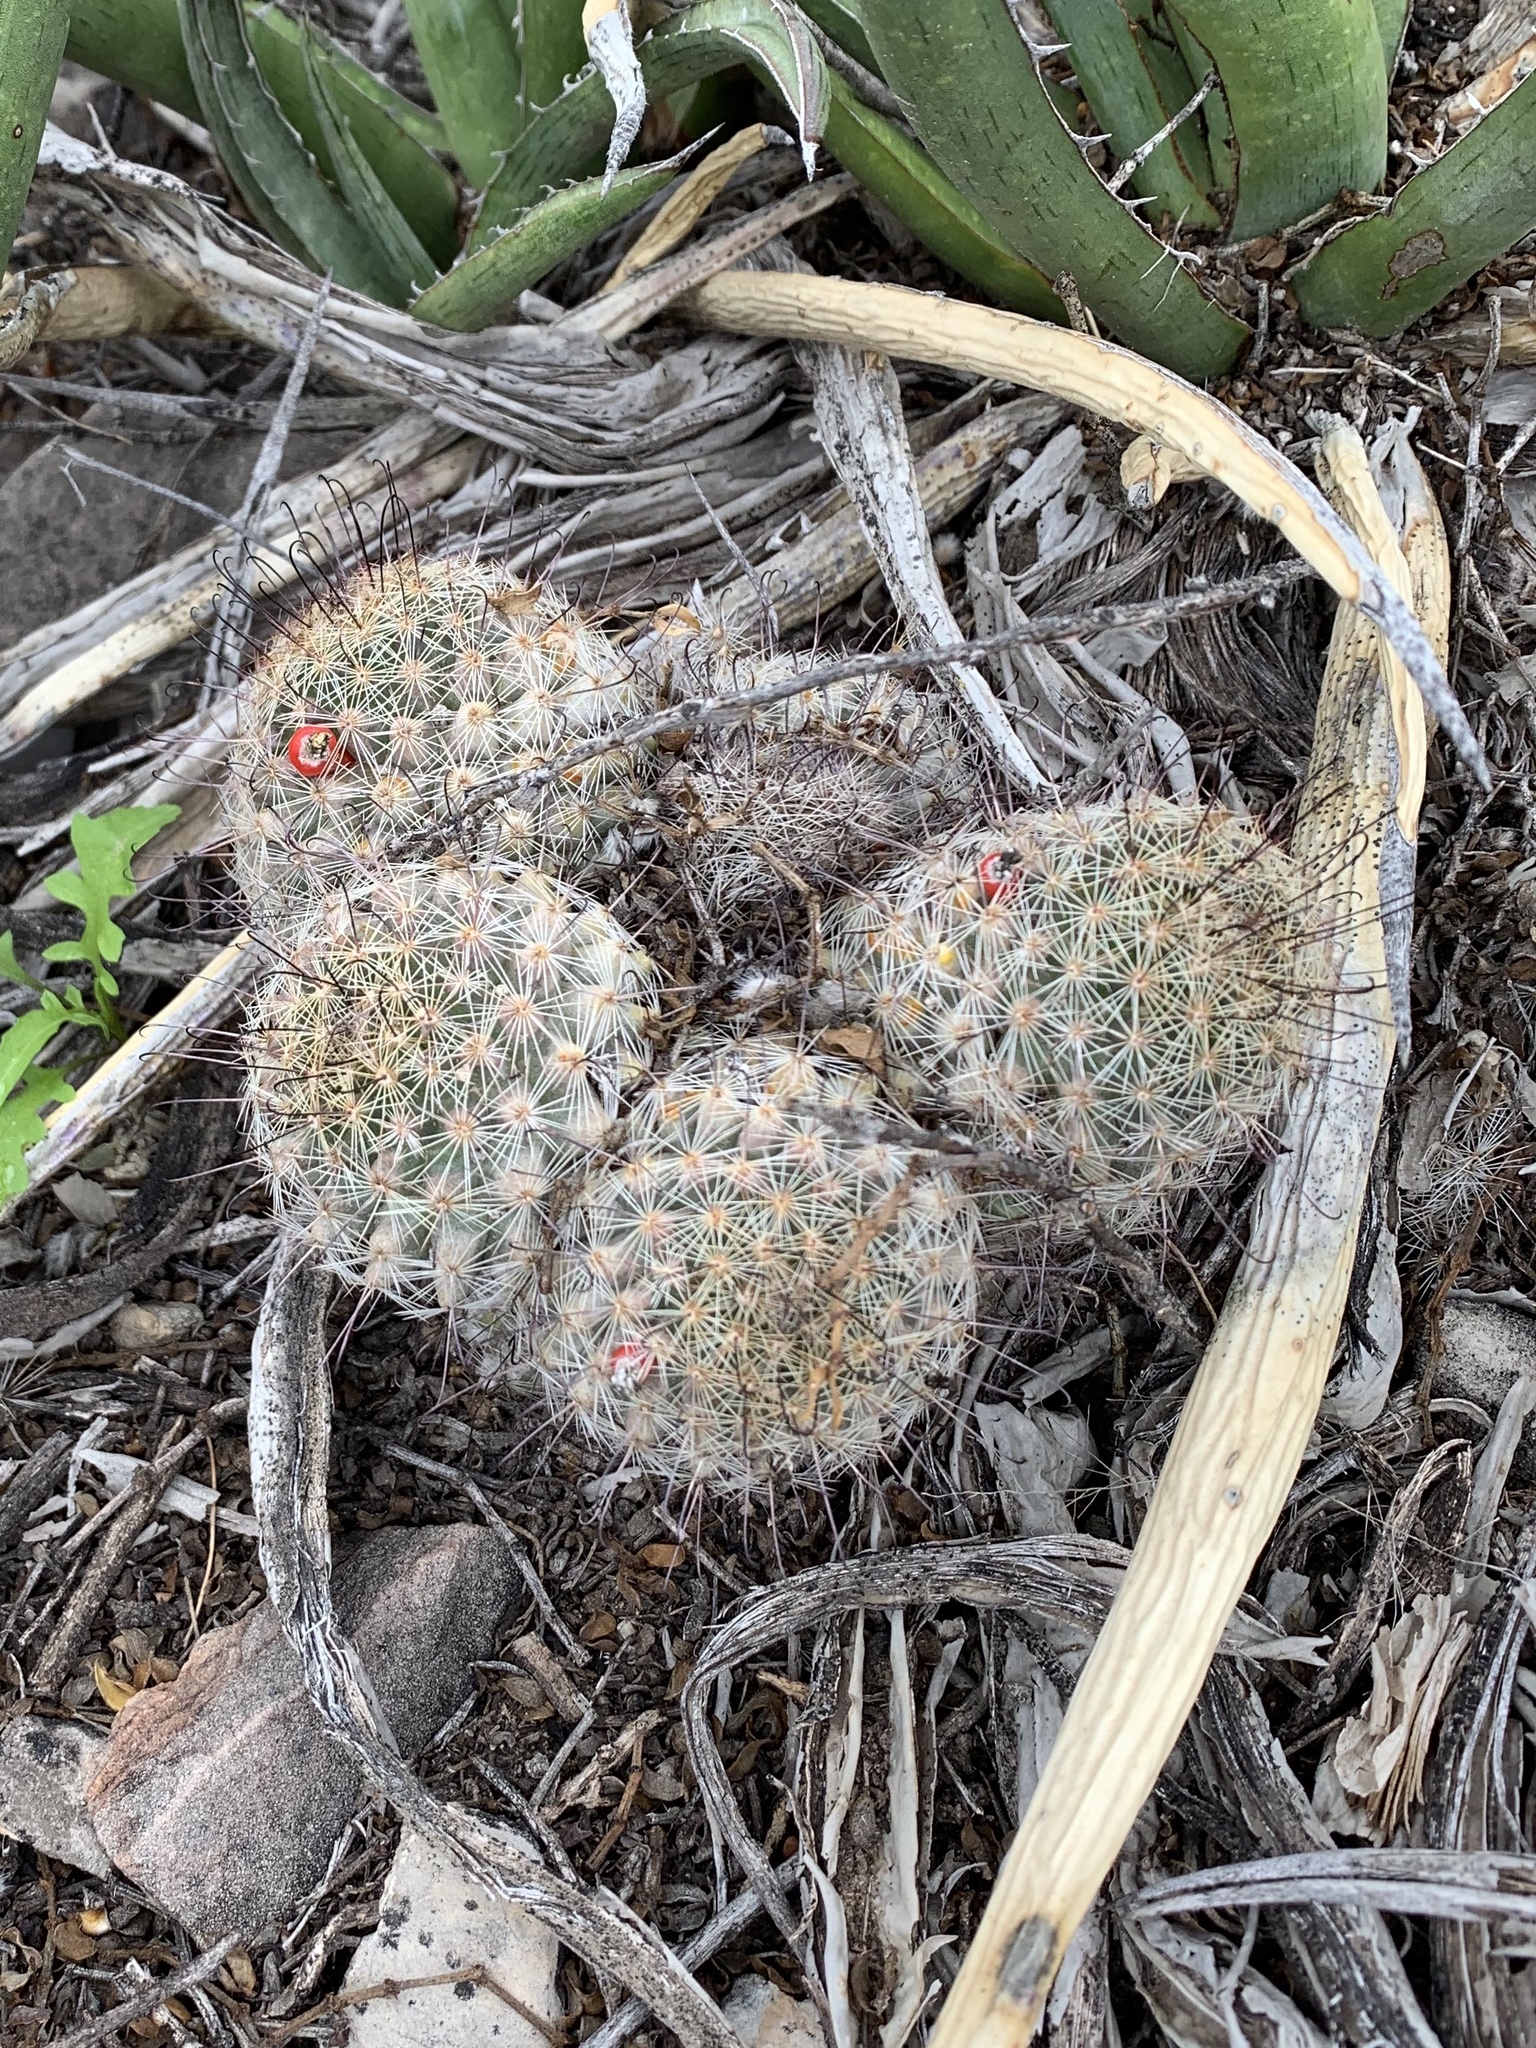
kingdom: Plantae
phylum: Tracheophyta
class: Magnoliopsida
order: Caryophyllales
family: Cactaceae
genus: Cochemiea
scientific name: Cochemiea grahamii
